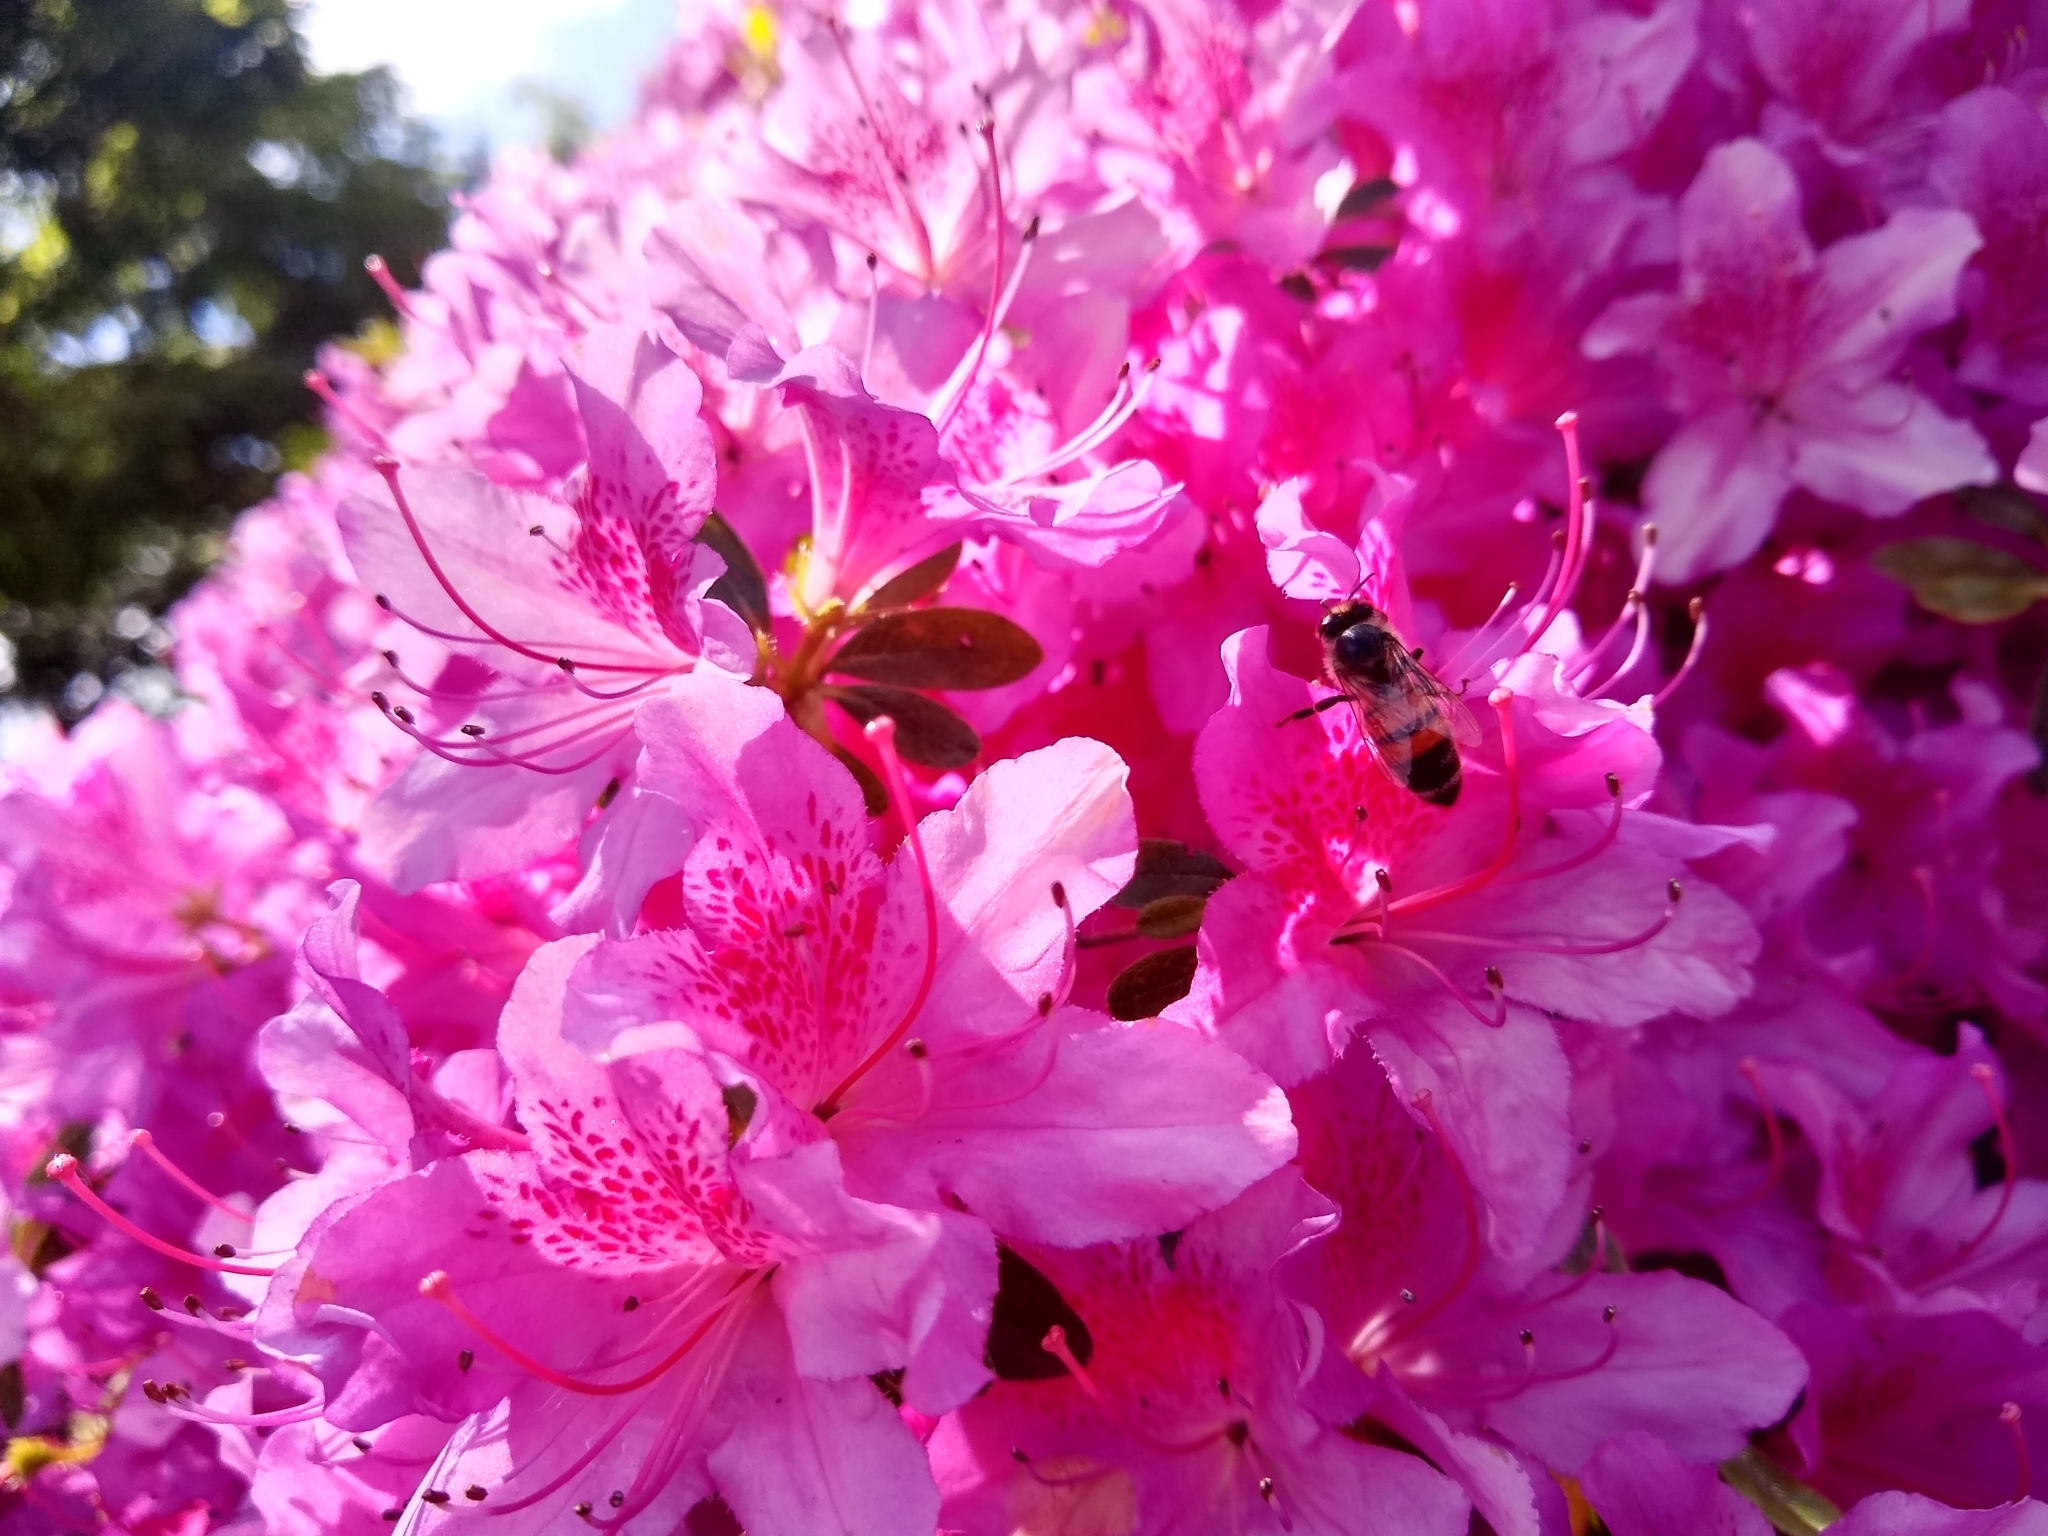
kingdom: Animalia
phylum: Arthropoda
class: Insecta
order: Hymenoptera
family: Apidae
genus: Apis
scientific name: Apis mellifera
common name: Honey bee
